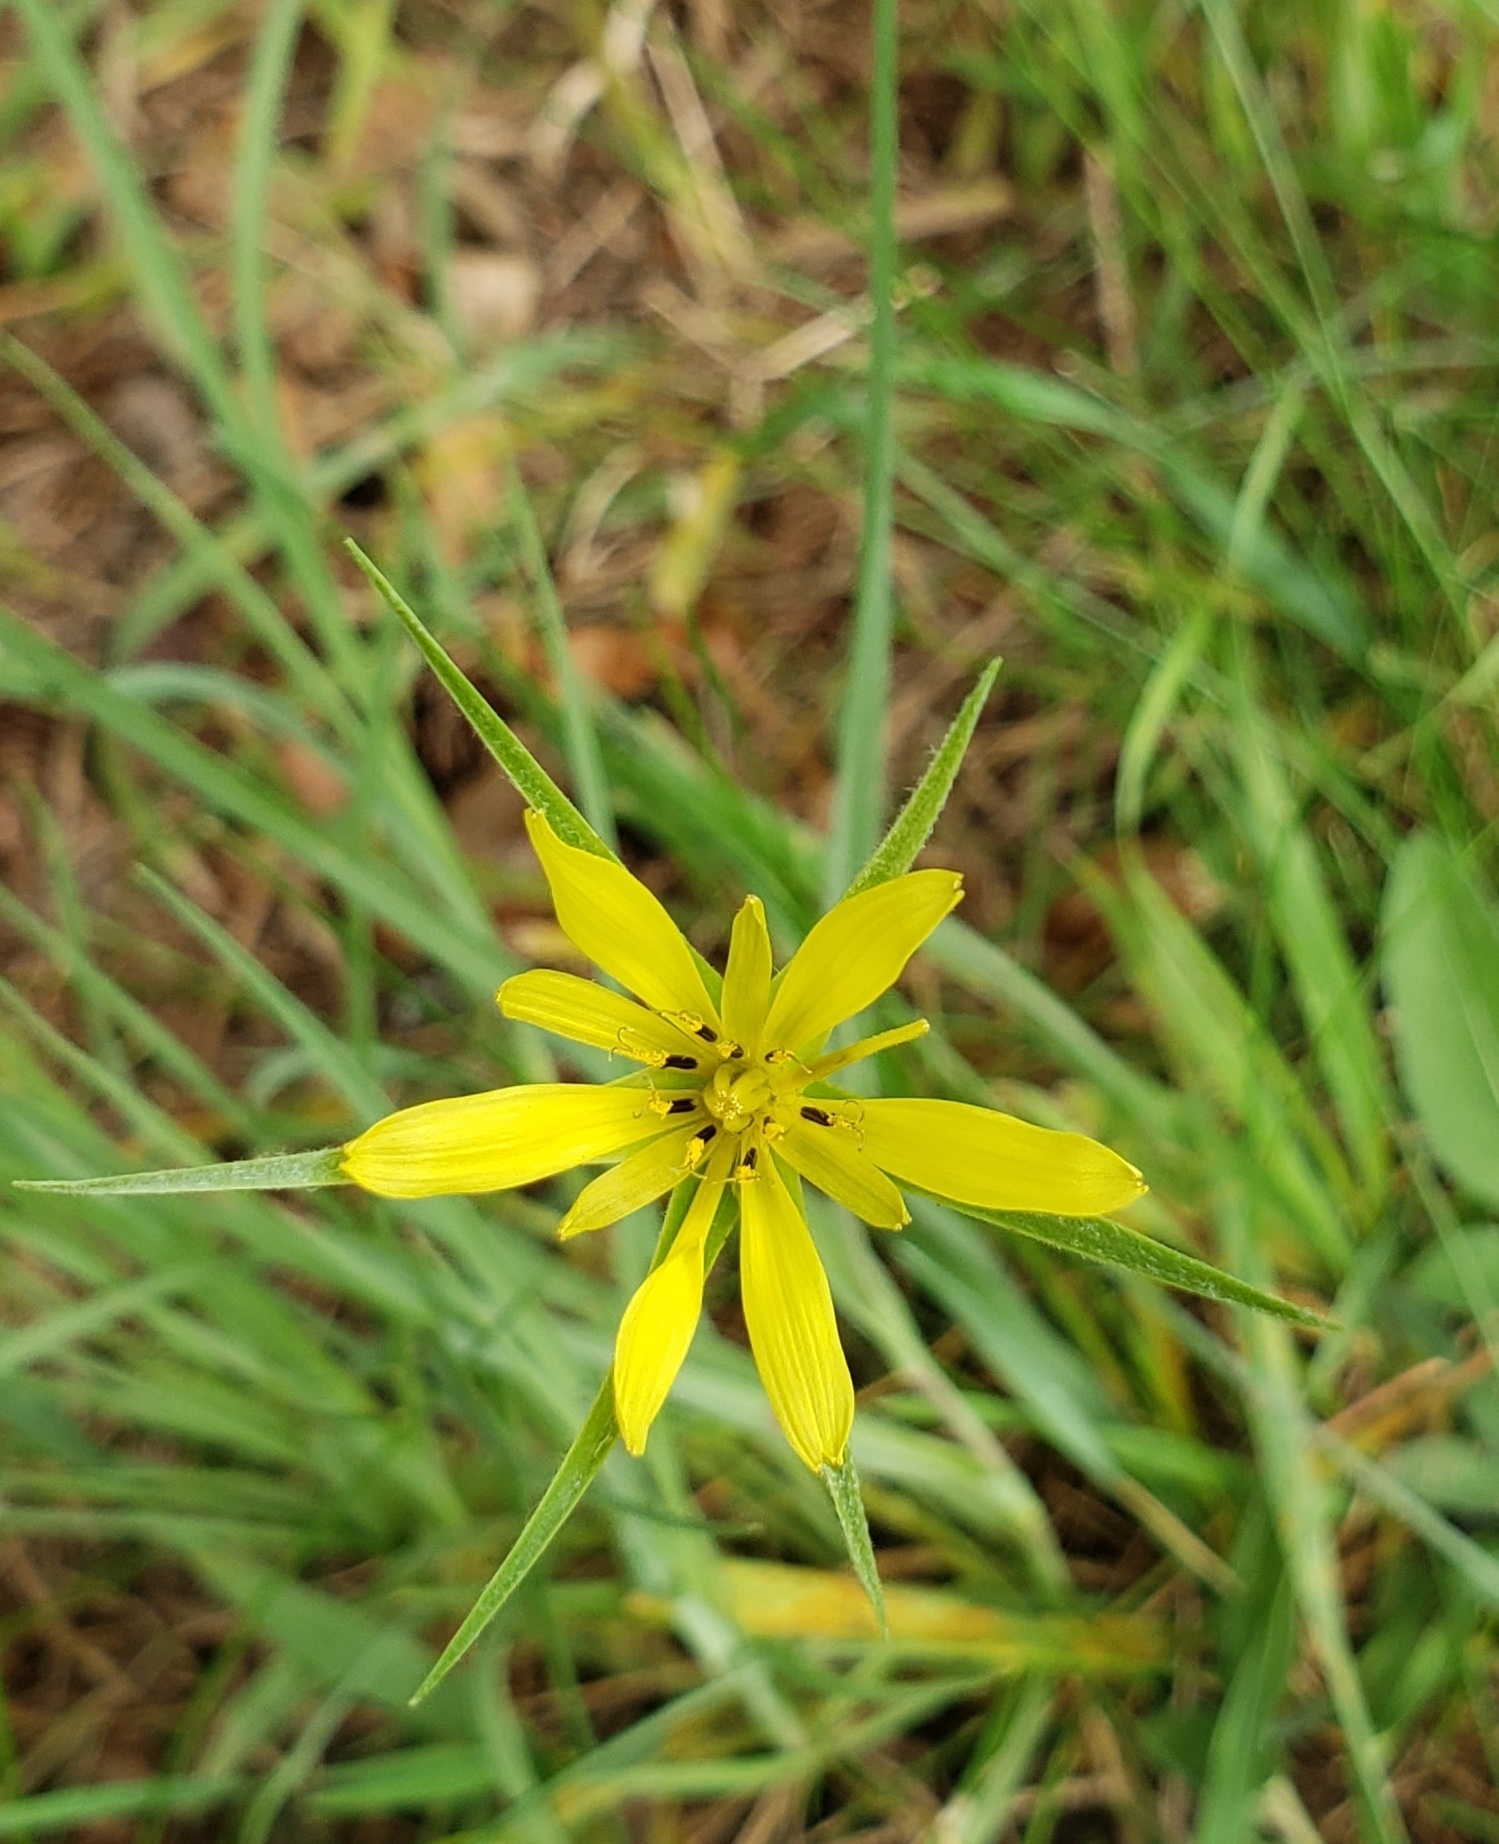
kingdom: Plantae
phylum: Tracheophyta
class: Magnoliopsida
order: Asterales
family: Asteraceae
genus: Tragopogon
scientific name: Tragopogon dubius
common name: Yellow salsify
